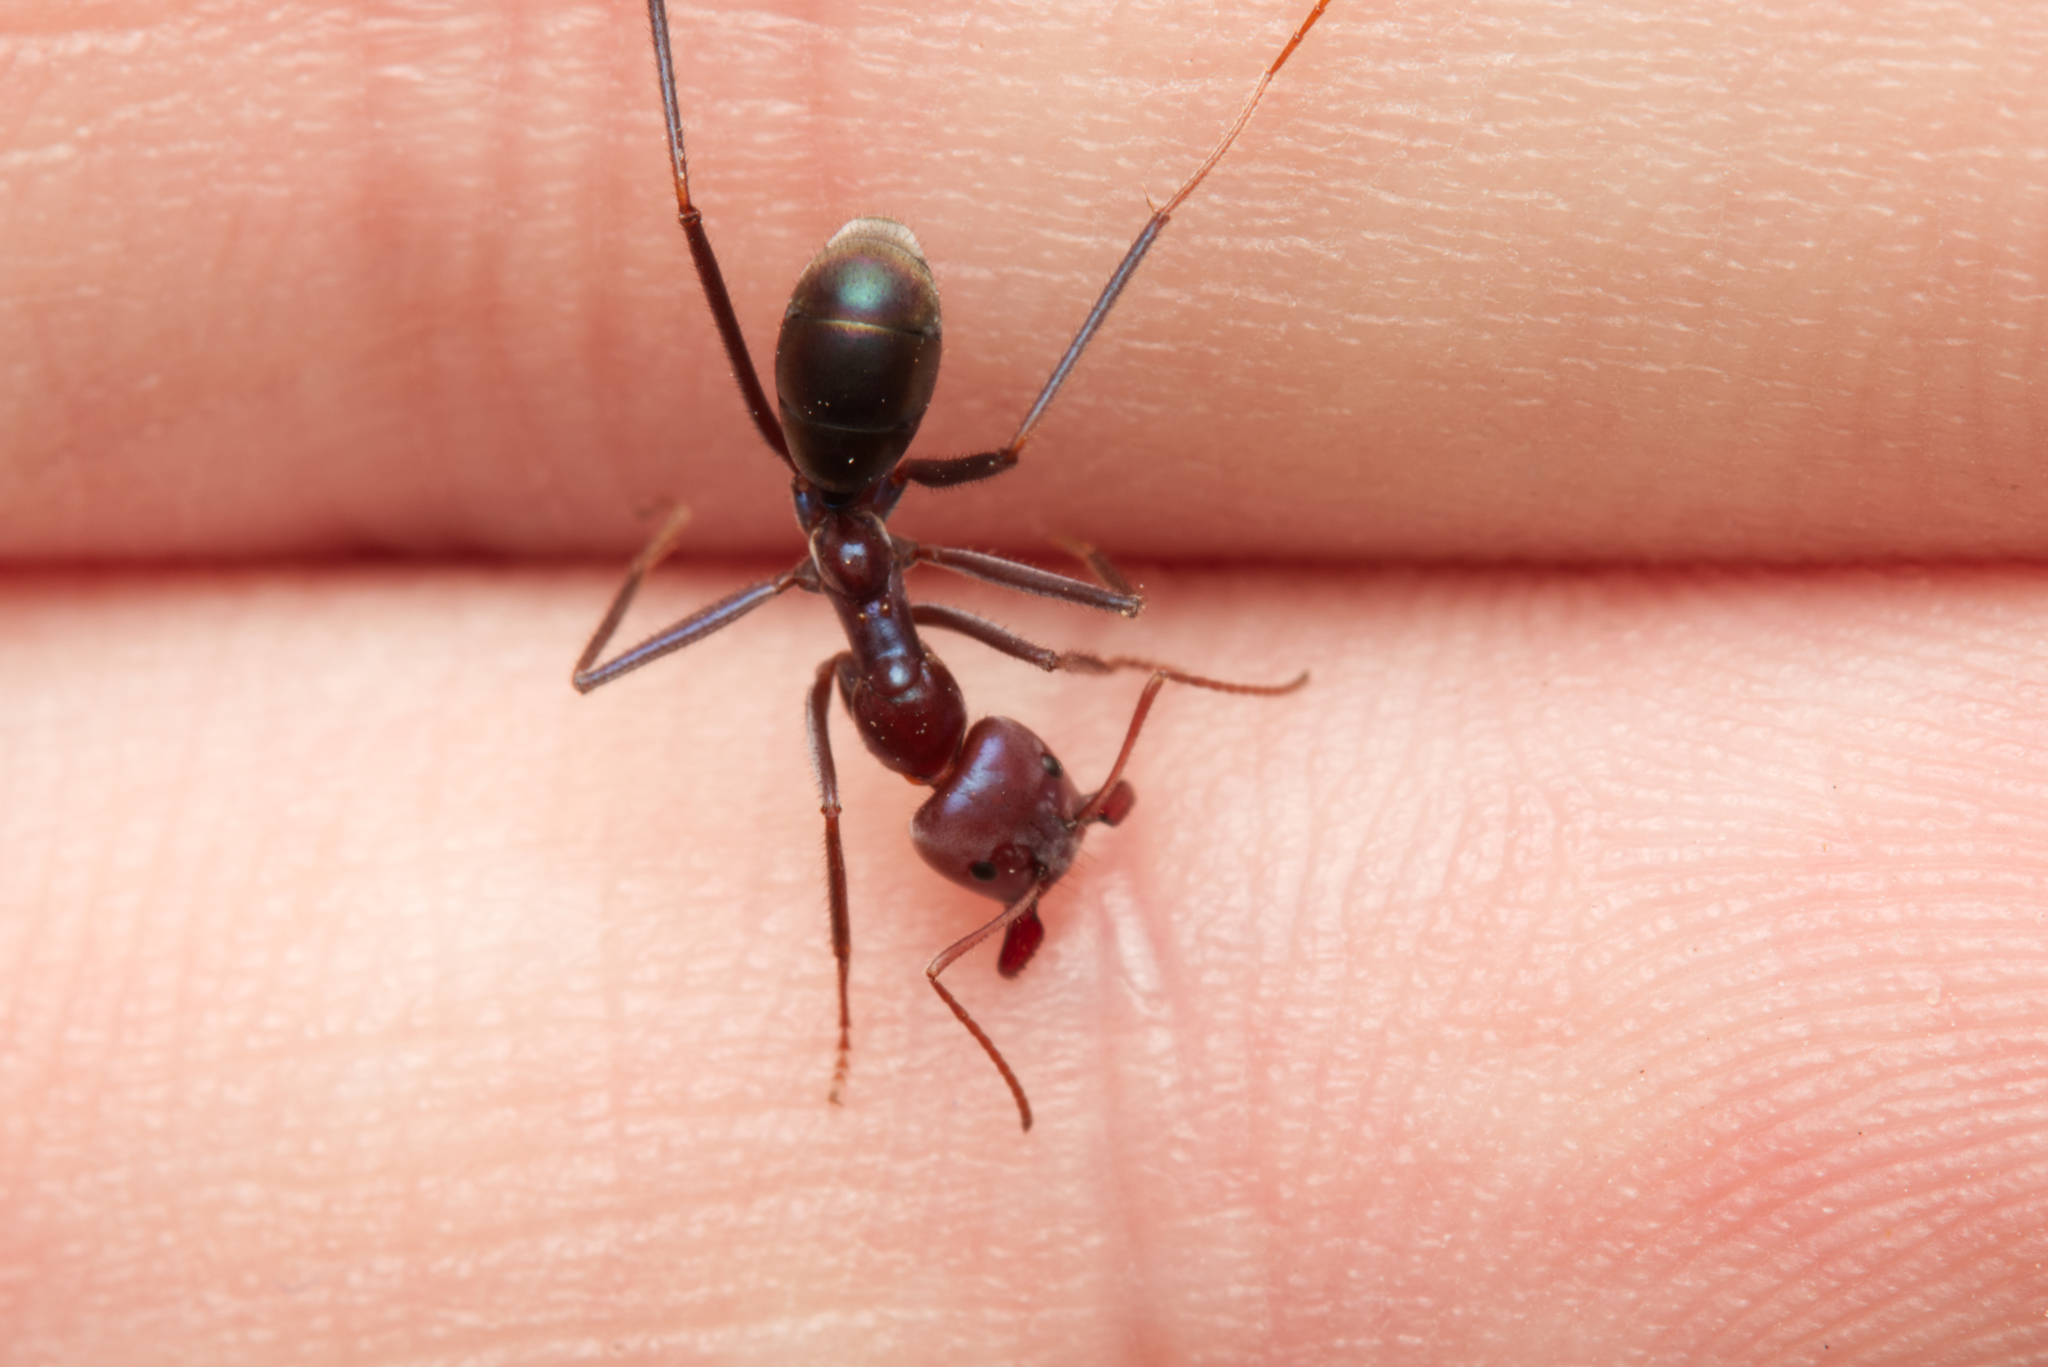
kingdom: Animalia
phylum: Arthropoda
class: Insecta
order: Hymenoptera
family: Formicidae
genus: Iridomyrmex
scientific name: Iridomyrmex purpureus
